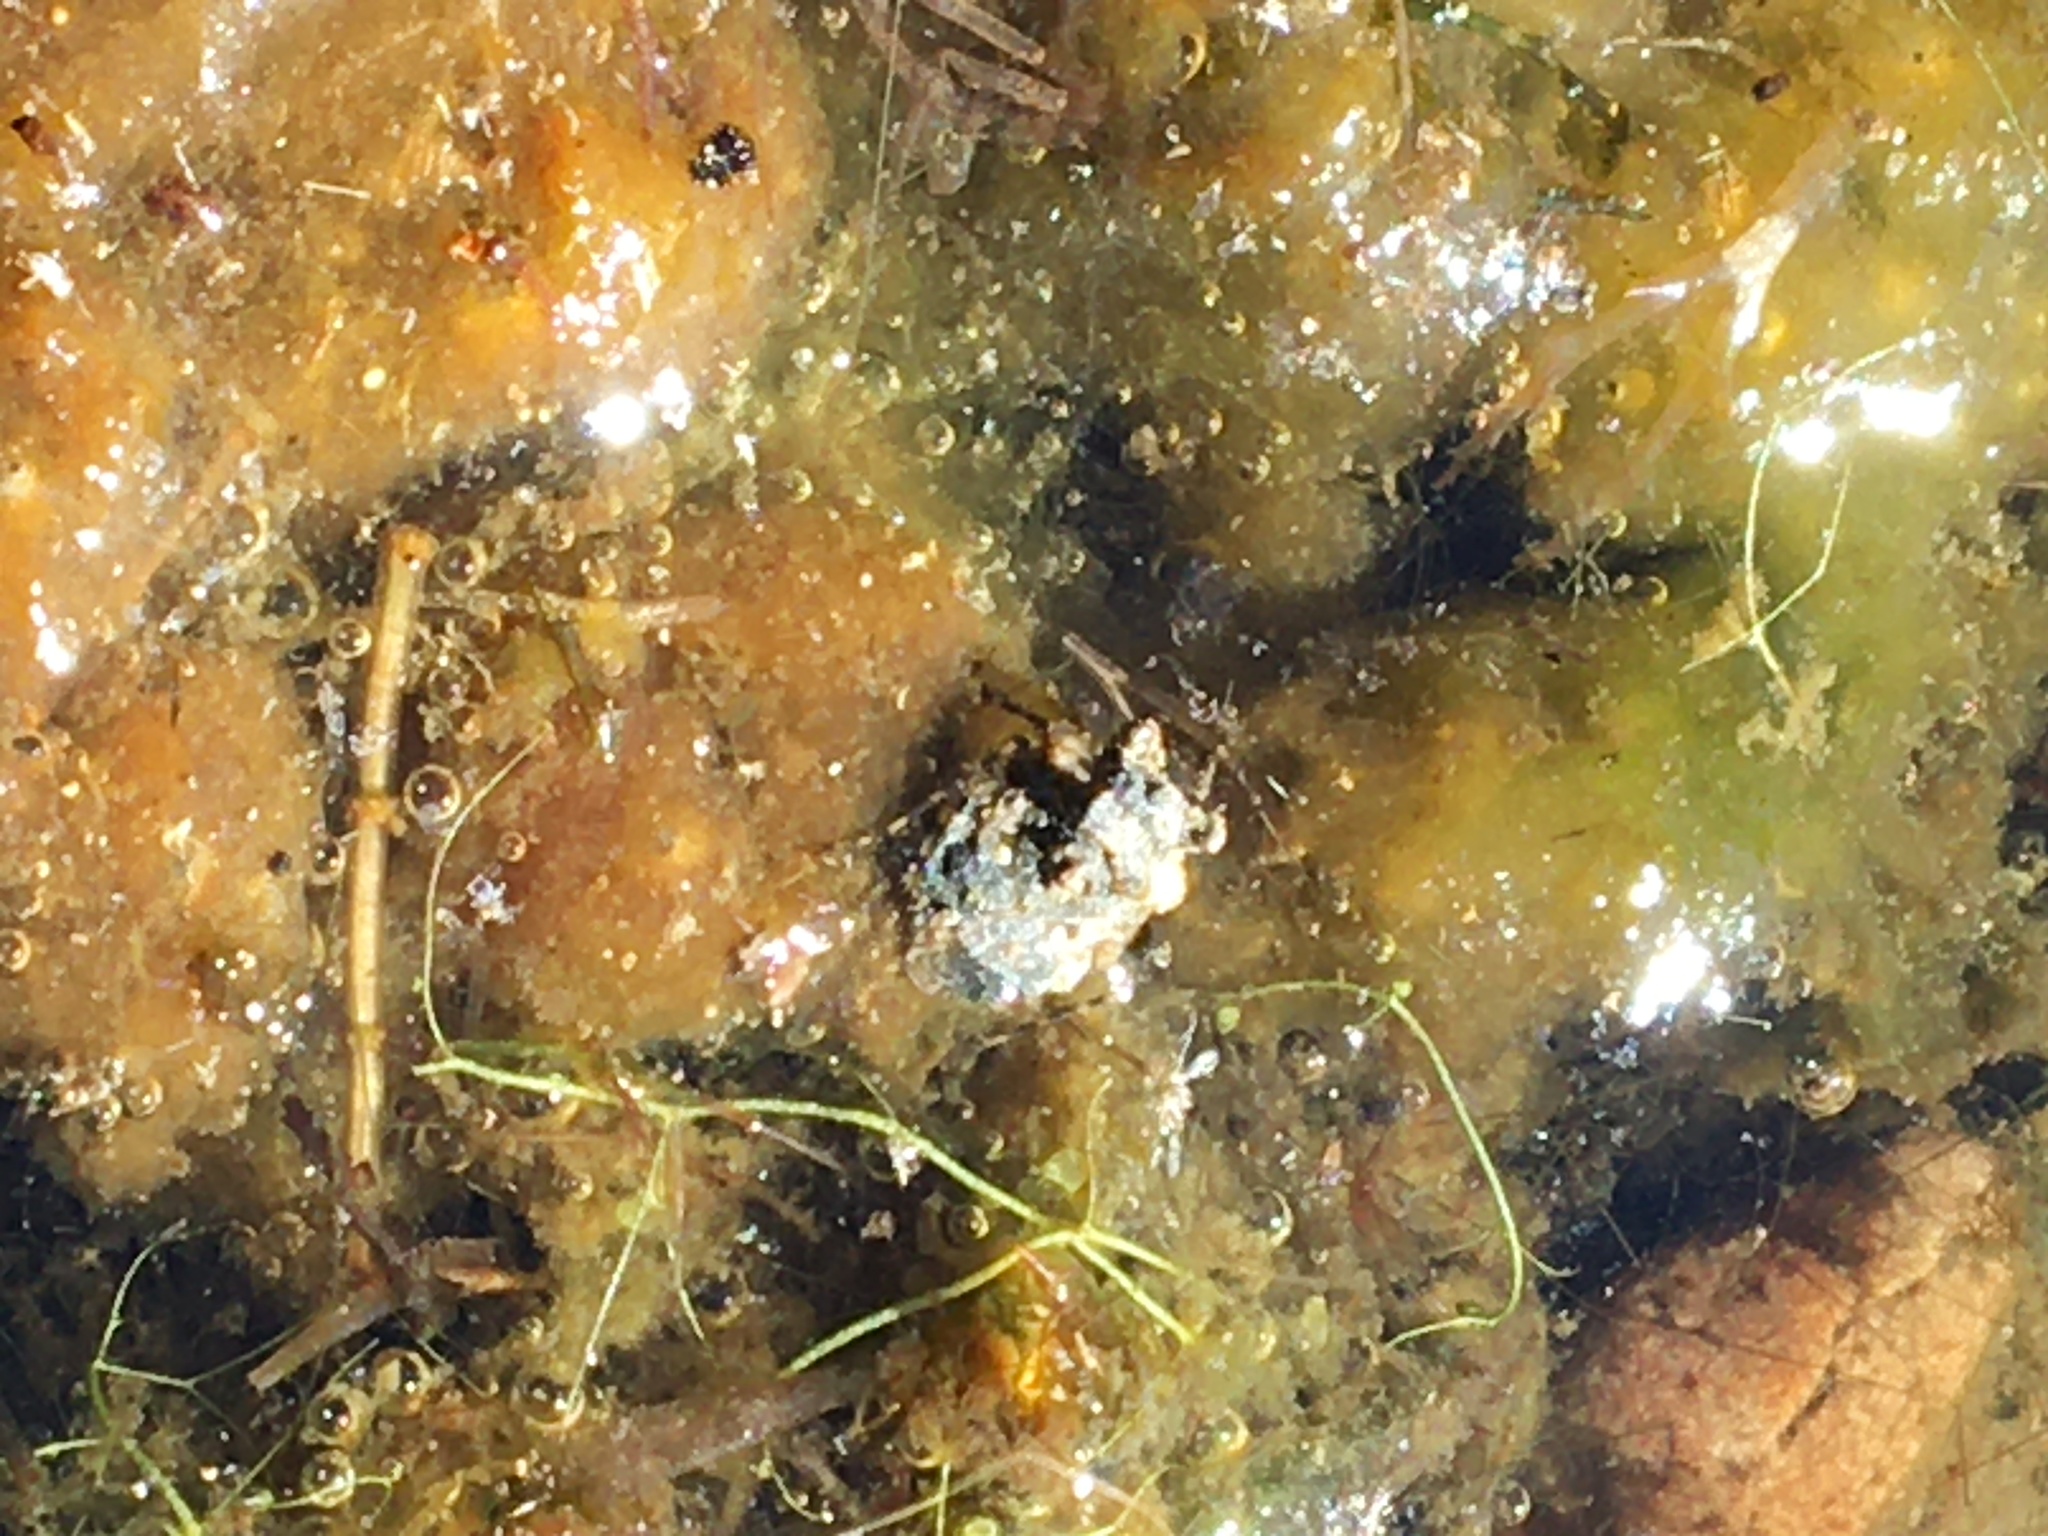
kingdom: Animalia
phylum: Arthropoda
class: Insecta
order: Hemiptera
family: Gelastocoridae
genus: Gelastocoris
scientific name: Gelastocoris oculatus
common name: Toad bug
